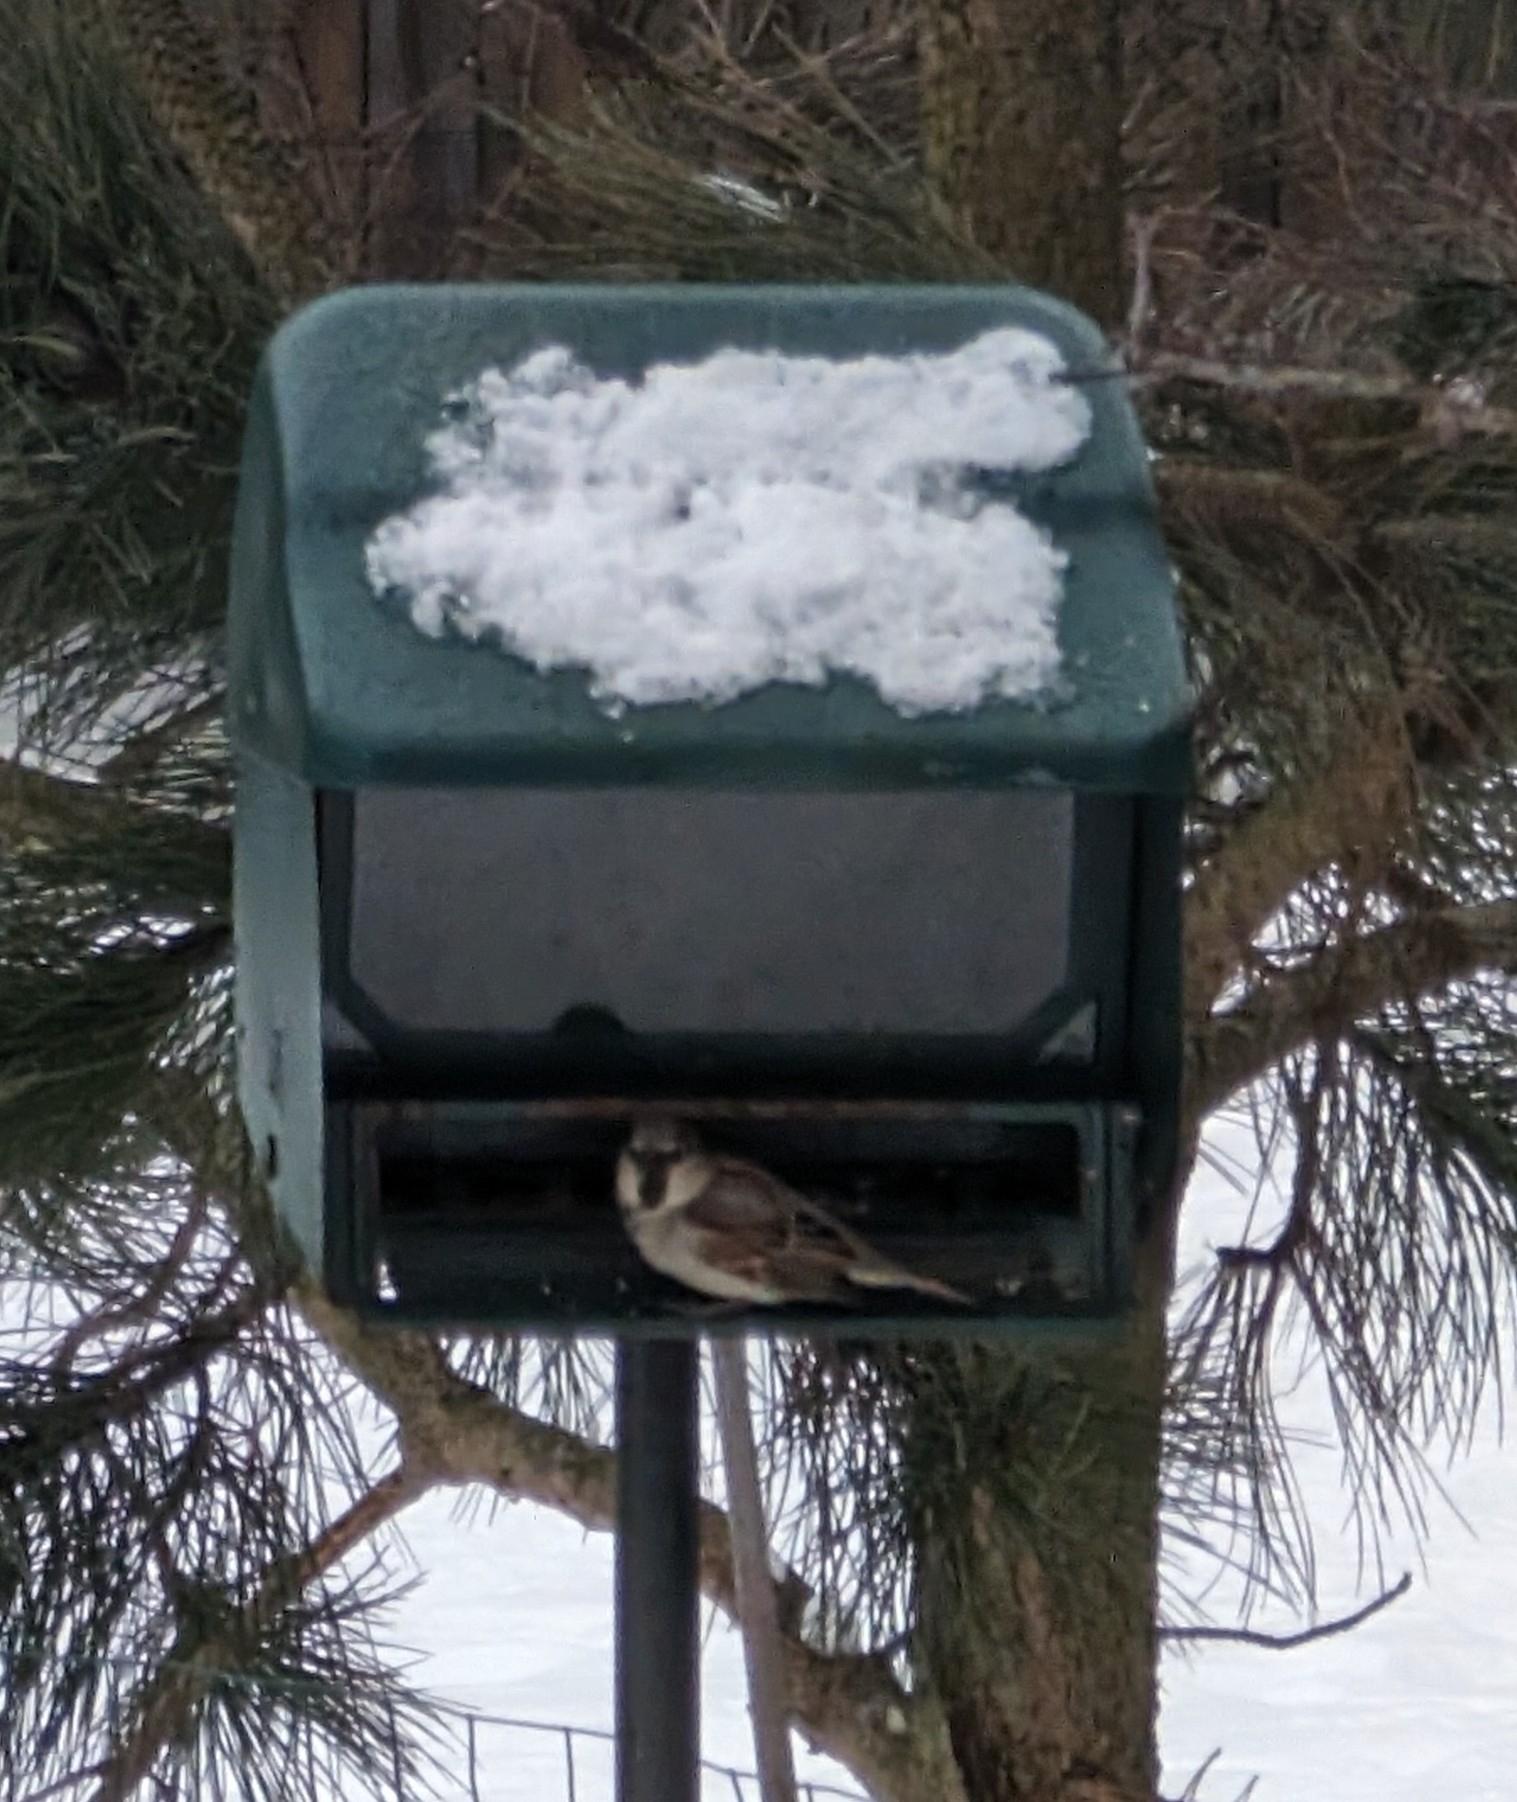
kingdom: Animalia
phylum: Chordata
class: Aves
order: Passeriformes
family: Passeridae
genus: Passer
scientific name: Passer domesticus
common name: House sparrow
